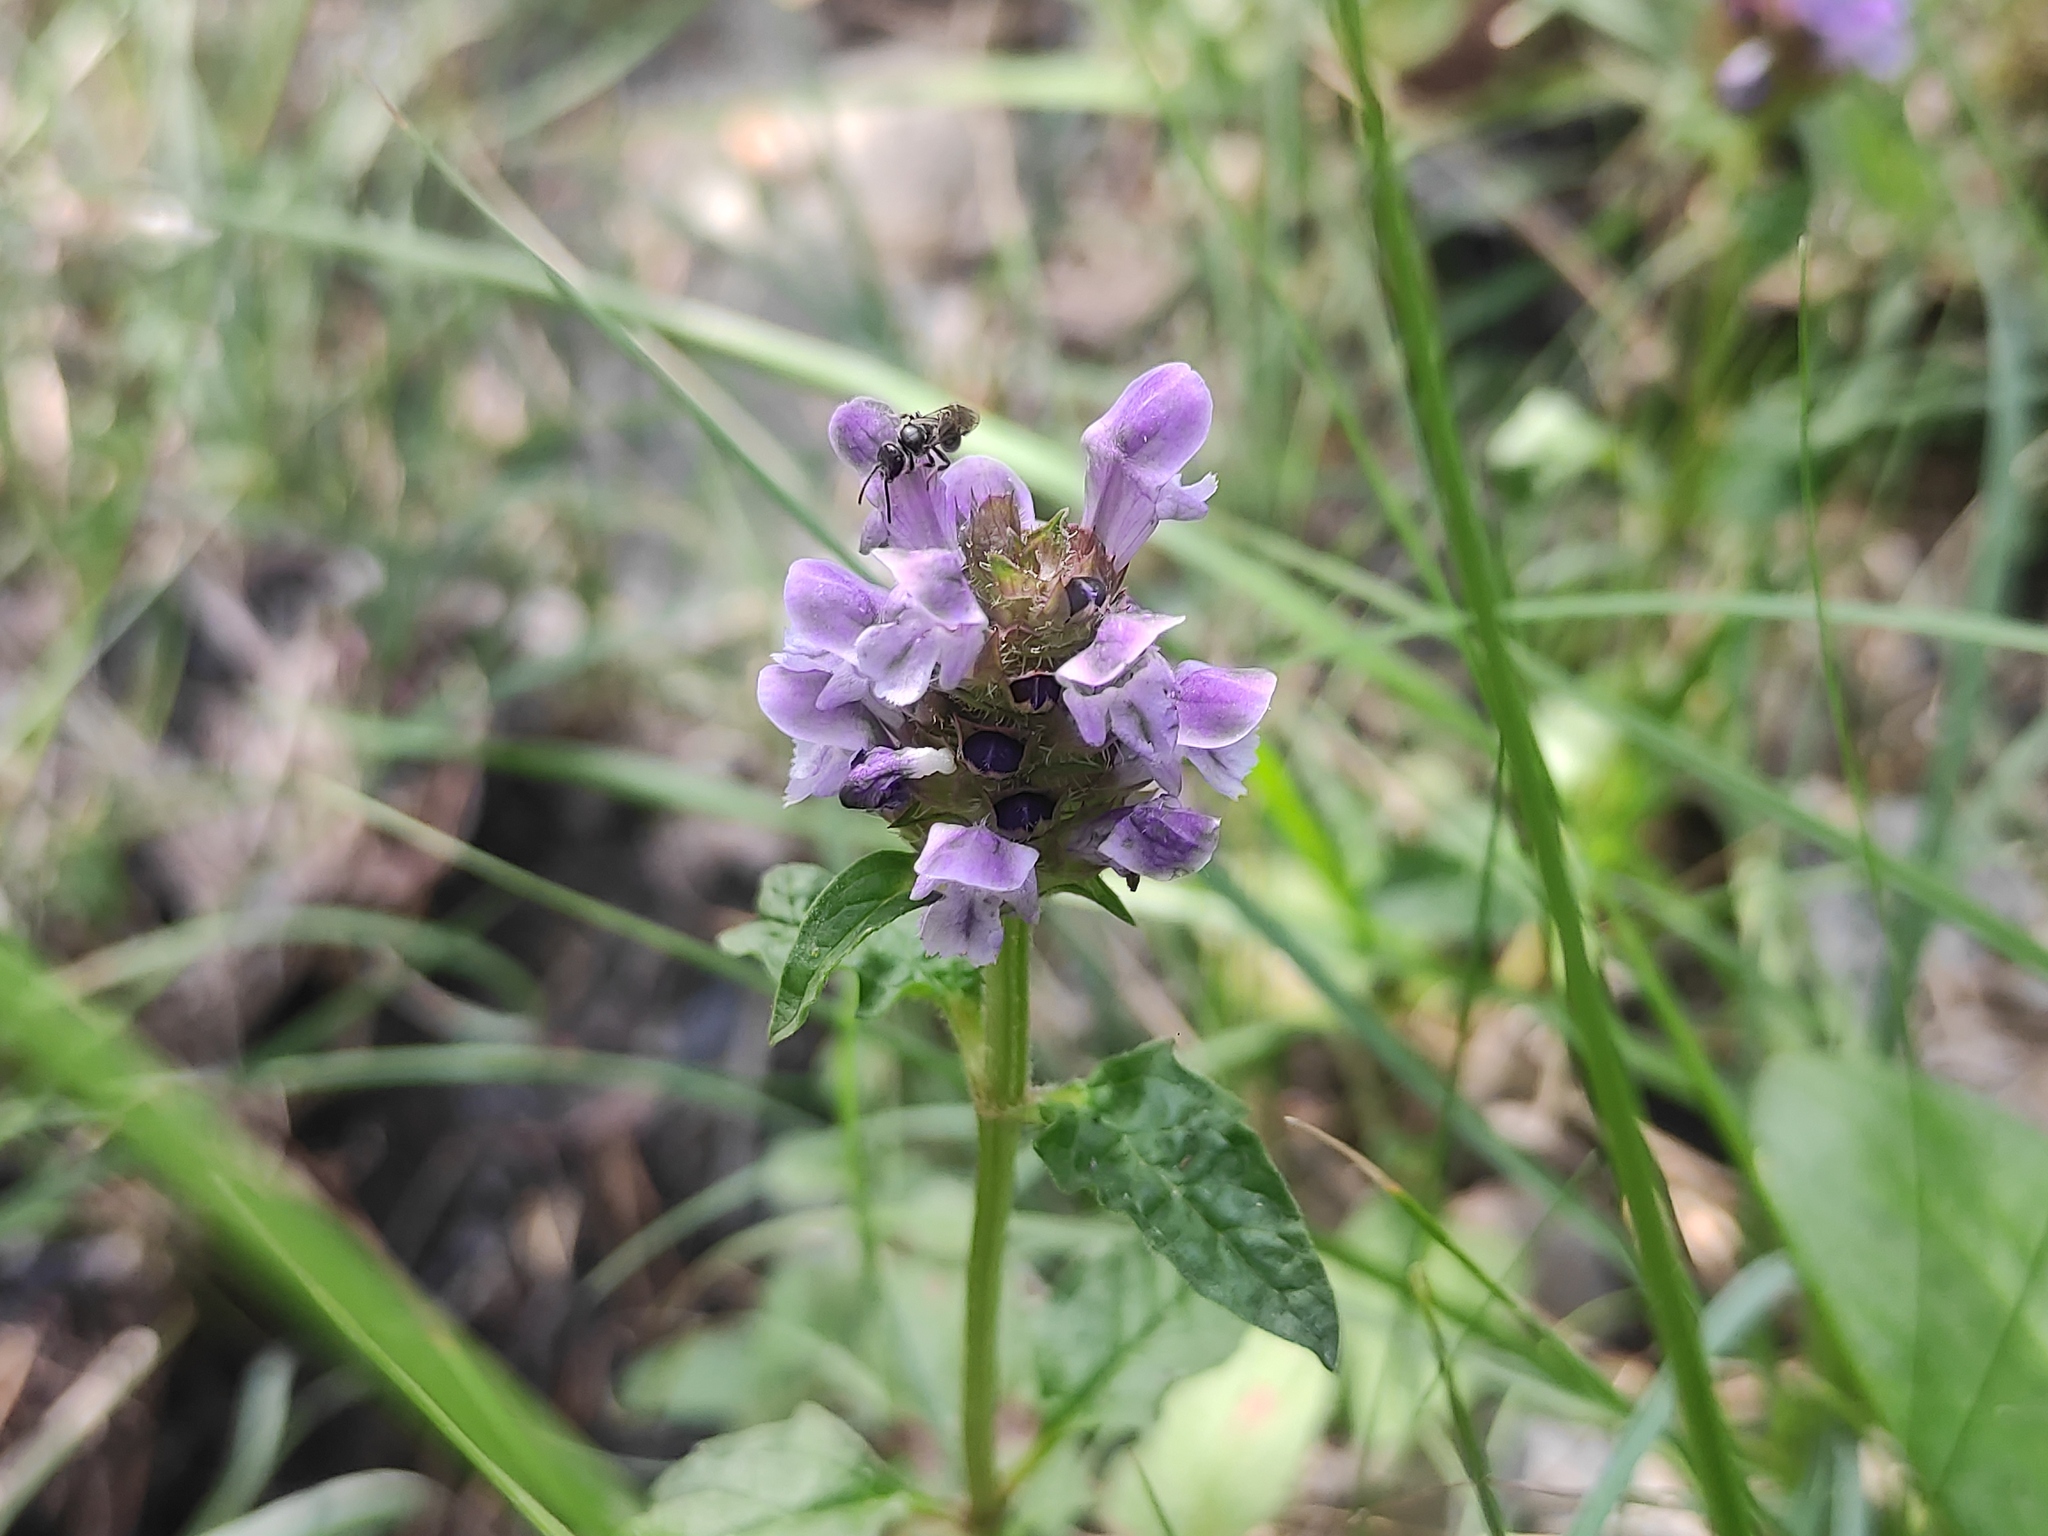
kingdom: Plantae
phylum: Tracheophyta
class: Magnoliopsida
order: Lamiales
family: Lamiaceae
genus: Prunella
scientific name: Prunella vulgaris
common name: Heal-all
